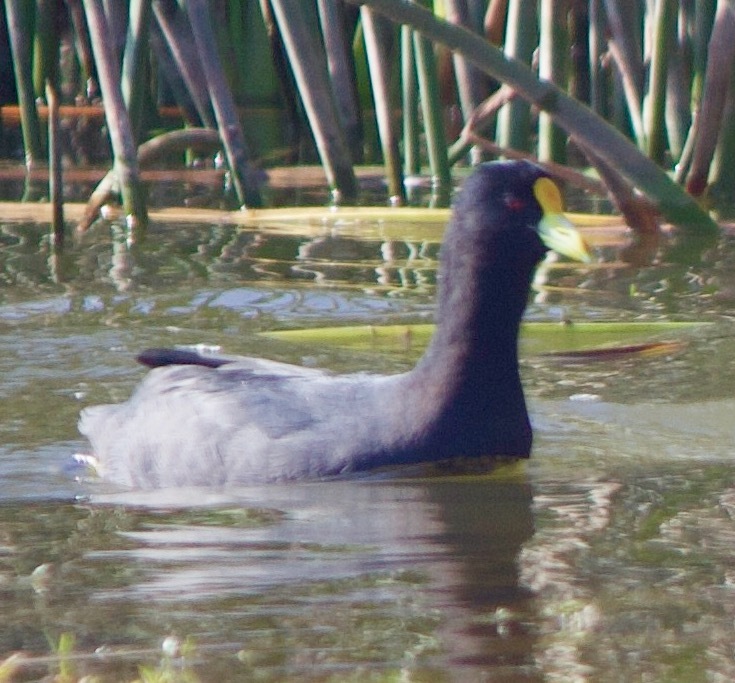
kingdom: Animalia
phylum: Chordata
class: Aves
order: Gruiformes
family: Rallidae
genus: Fulica
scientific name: Fulica leucoptera
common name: White-winged coot
